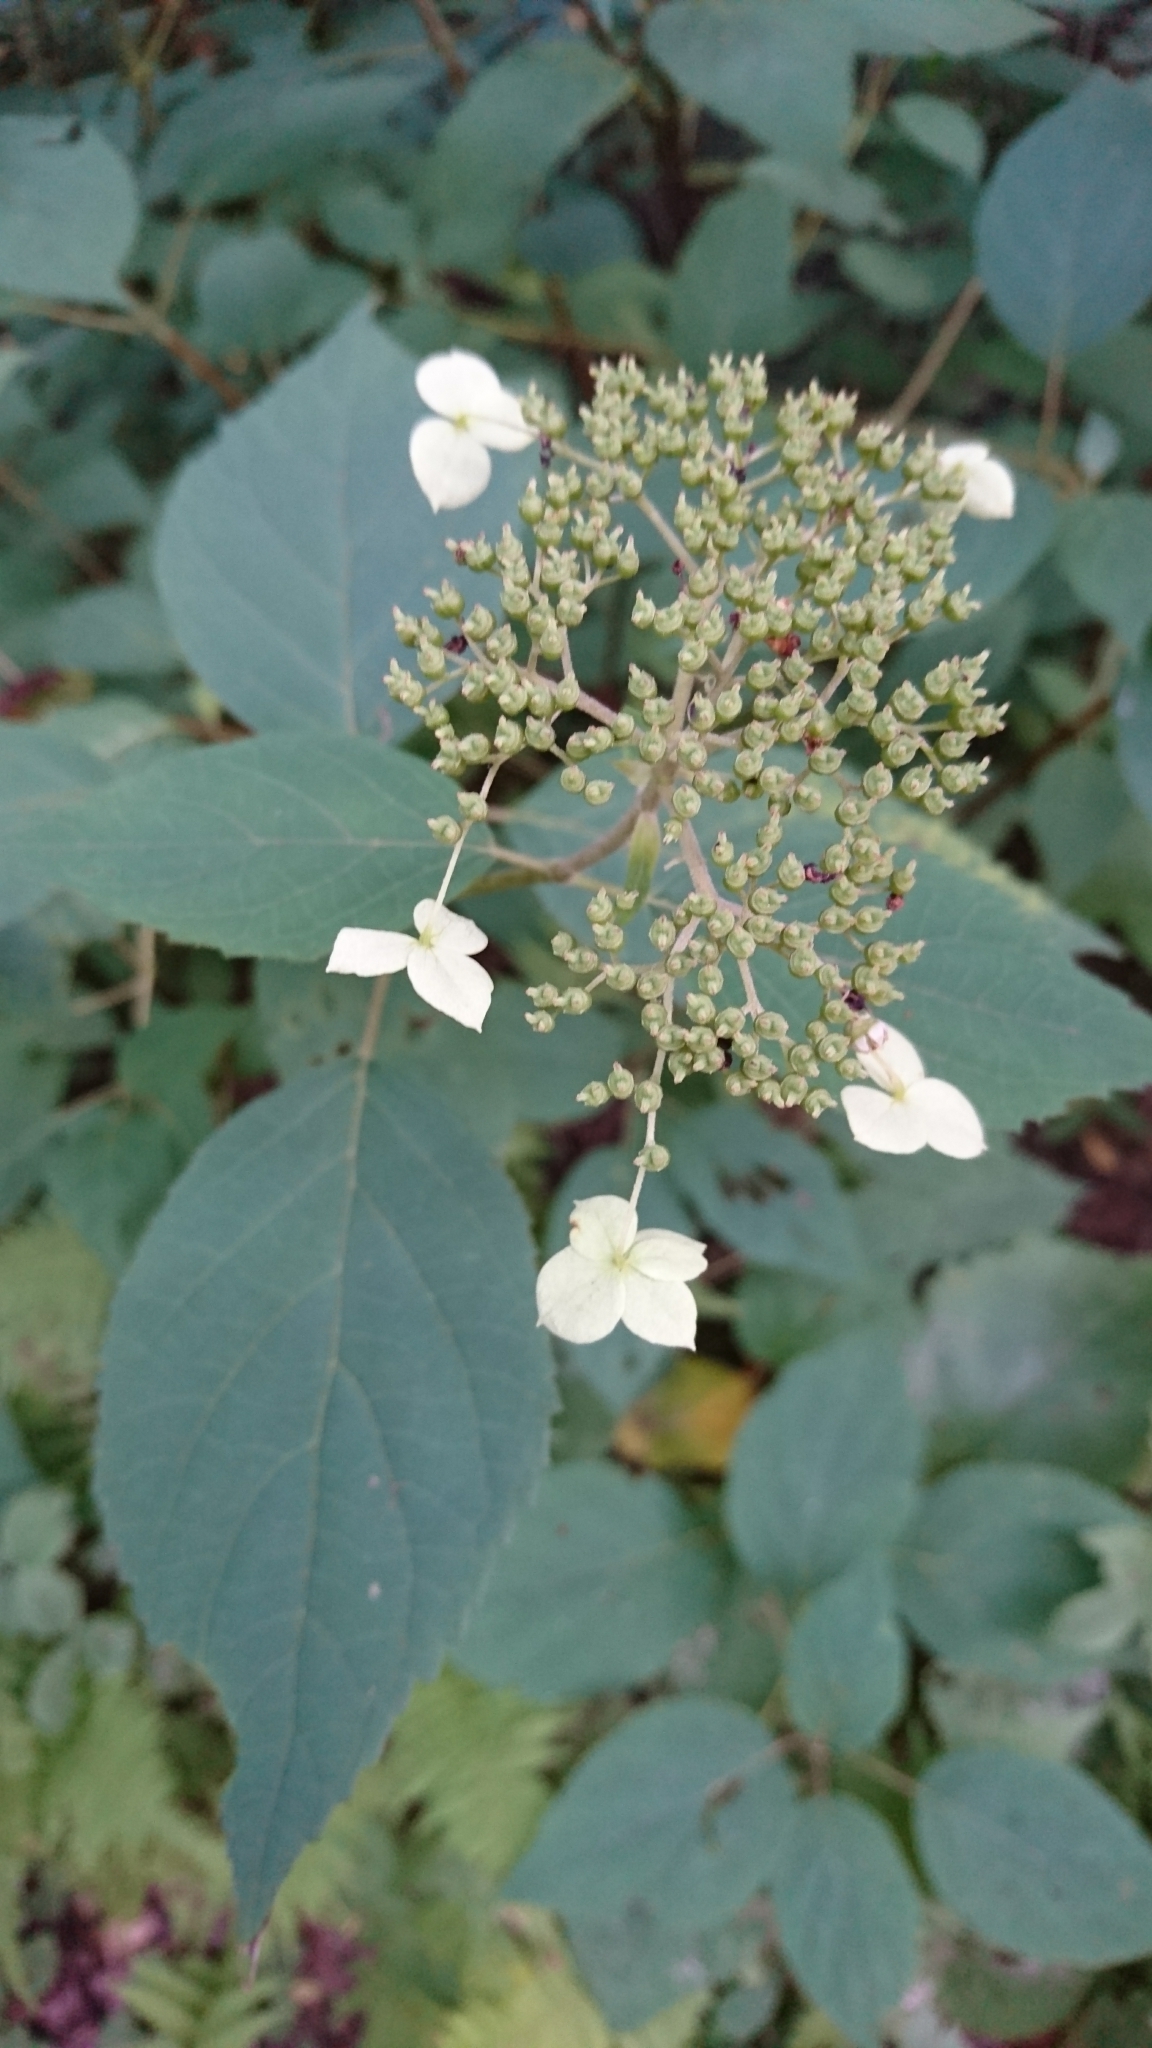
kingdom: Plantae
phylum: Tracheophyta
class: Magnoliopsida
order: Cornales
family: Hydrangeaceae
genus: Hydrangea
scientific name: Hydrangea arborescens
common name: Sevenbark
